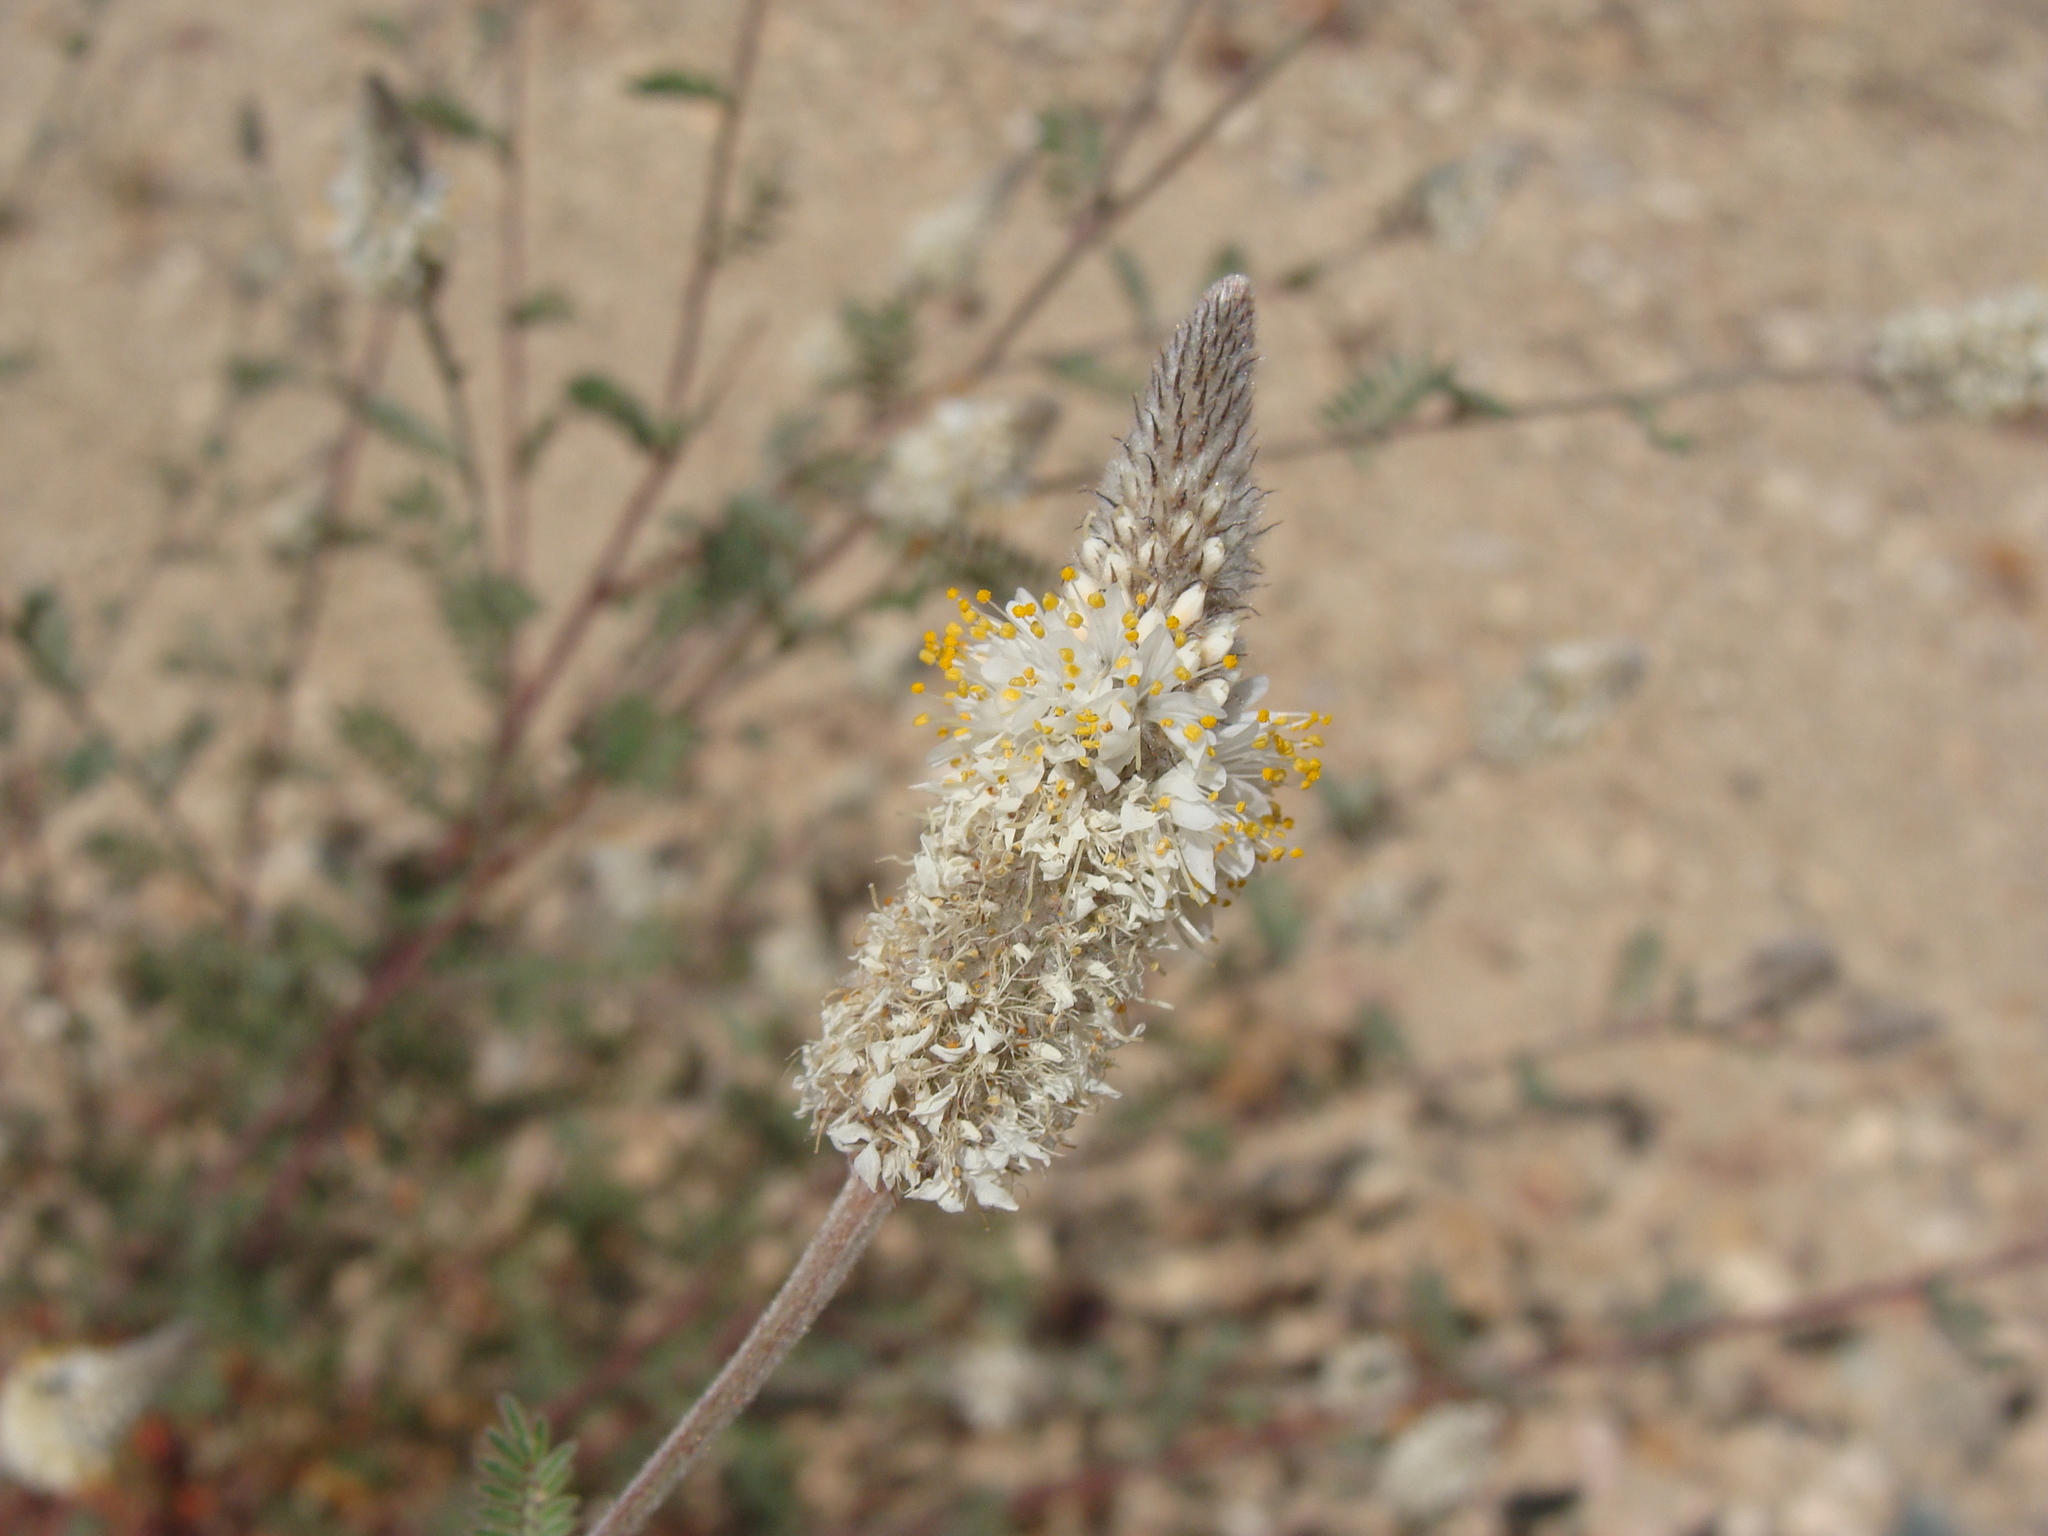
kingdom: Plantae
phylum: Tracheophyta
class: Magnoliopsida
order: Fabales
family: Fabaceae
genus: Dalea
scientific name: Dalea albiflora
